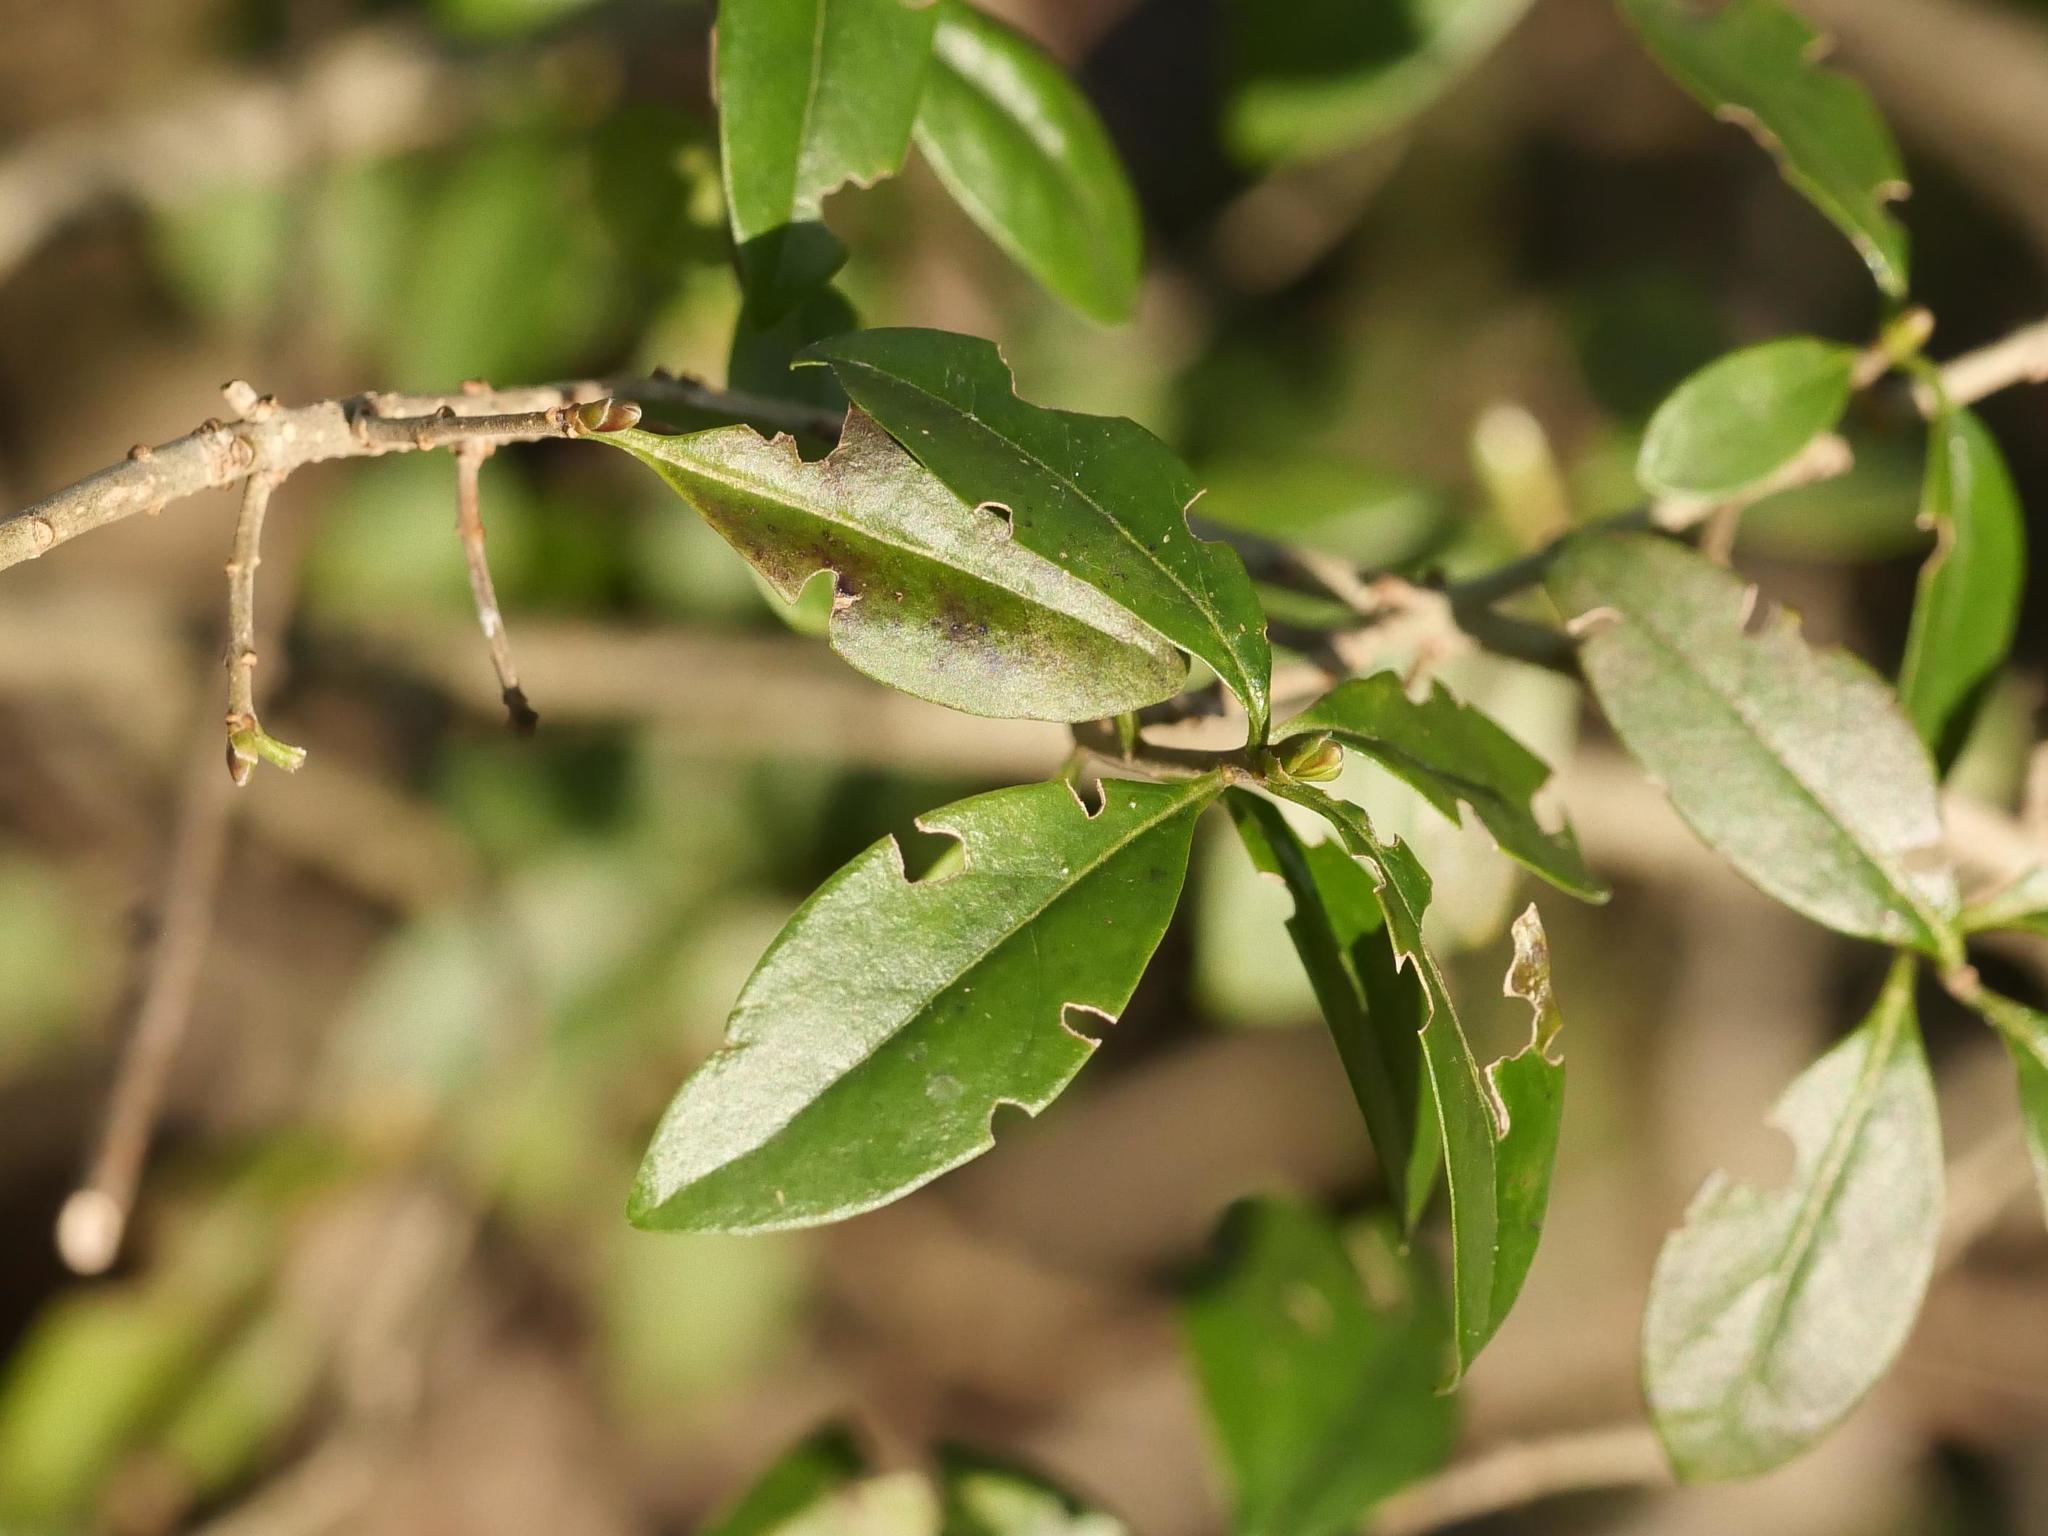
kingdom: Plantae
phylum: Tracheophyta
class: Magnoliopsida
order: Lamiales
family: Oleaceae
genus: Ligustrum
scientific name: Ligustrum vulgare
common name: Wild privet
